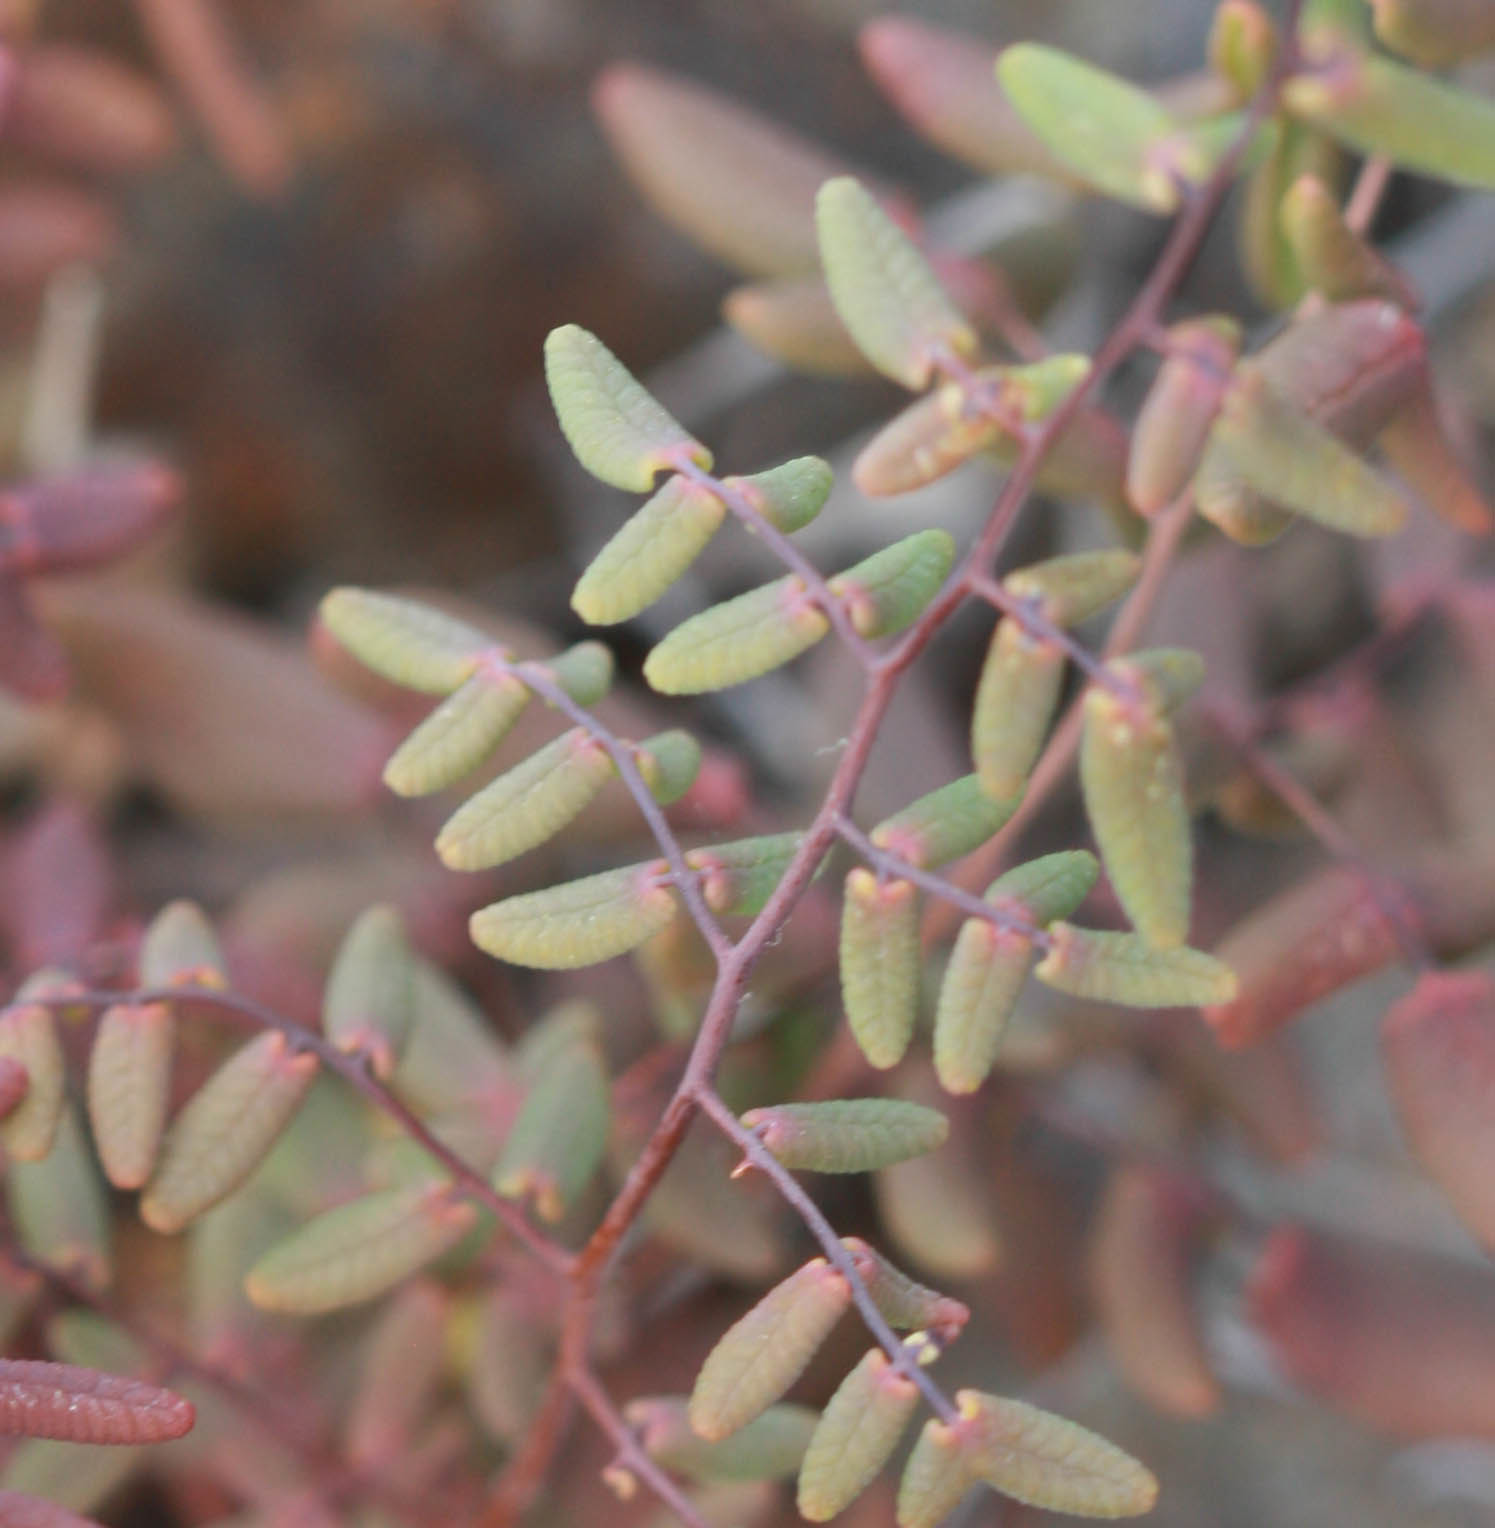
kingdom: Plantae
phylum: Tracheophyta
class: Polypodiopsida
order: Polypodiales
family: Pteridaceae
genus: Pellaea
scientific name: Pellaea andromedifolia
